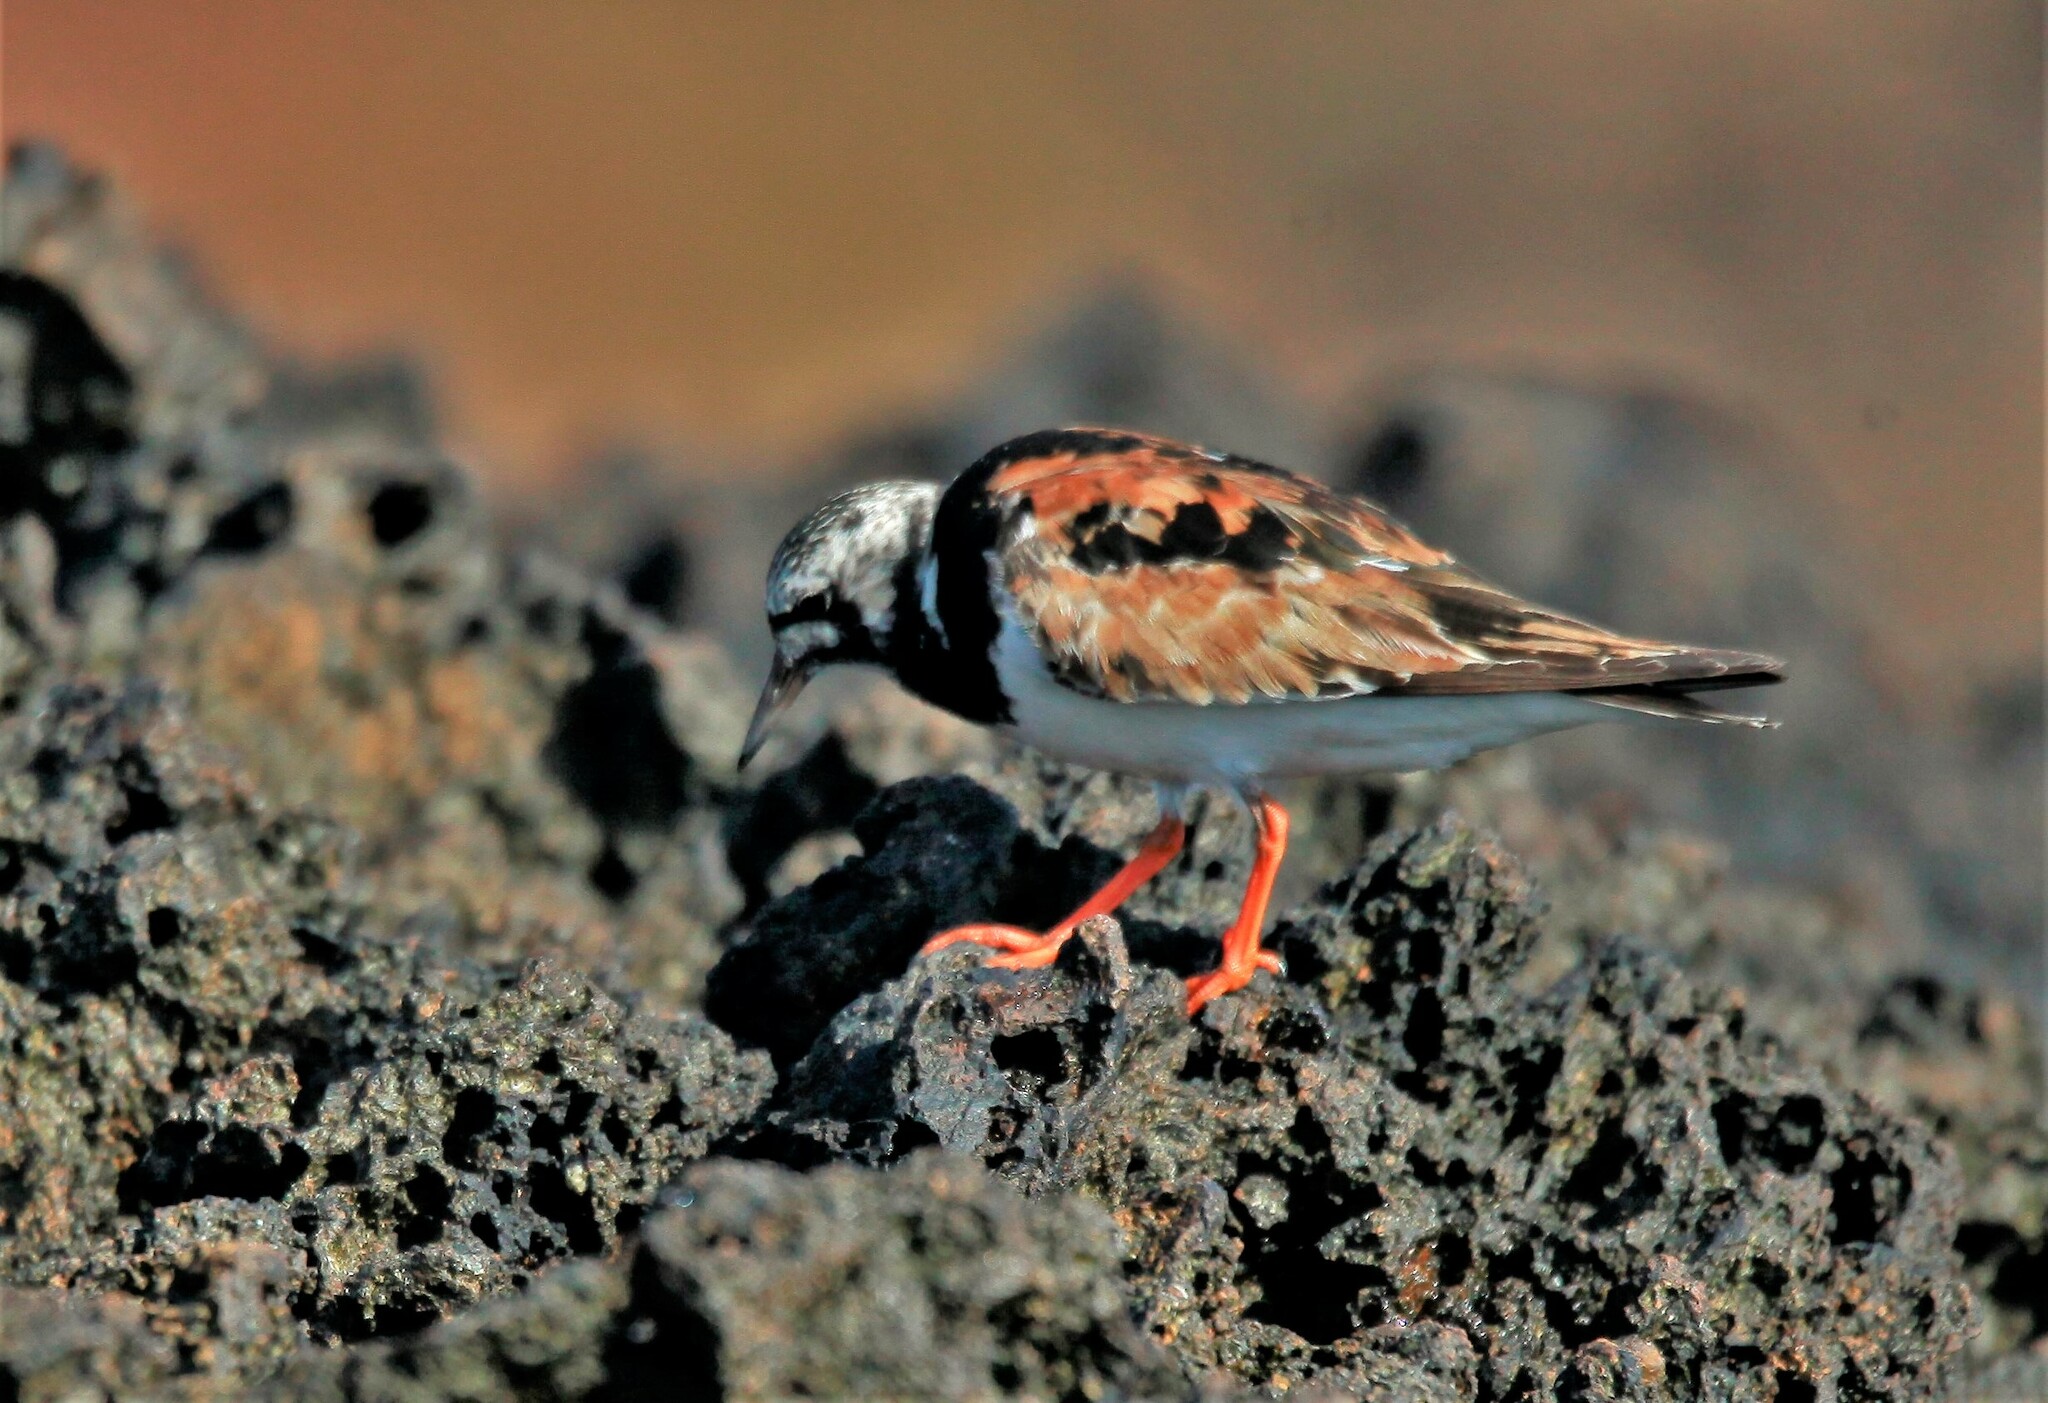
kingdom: Animalia
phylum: Chordata
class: Aves
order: Charadriiformes
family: Scolopacidae
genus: Arenaria
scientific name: Arenaria interpres
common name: Ruddy turnstone
